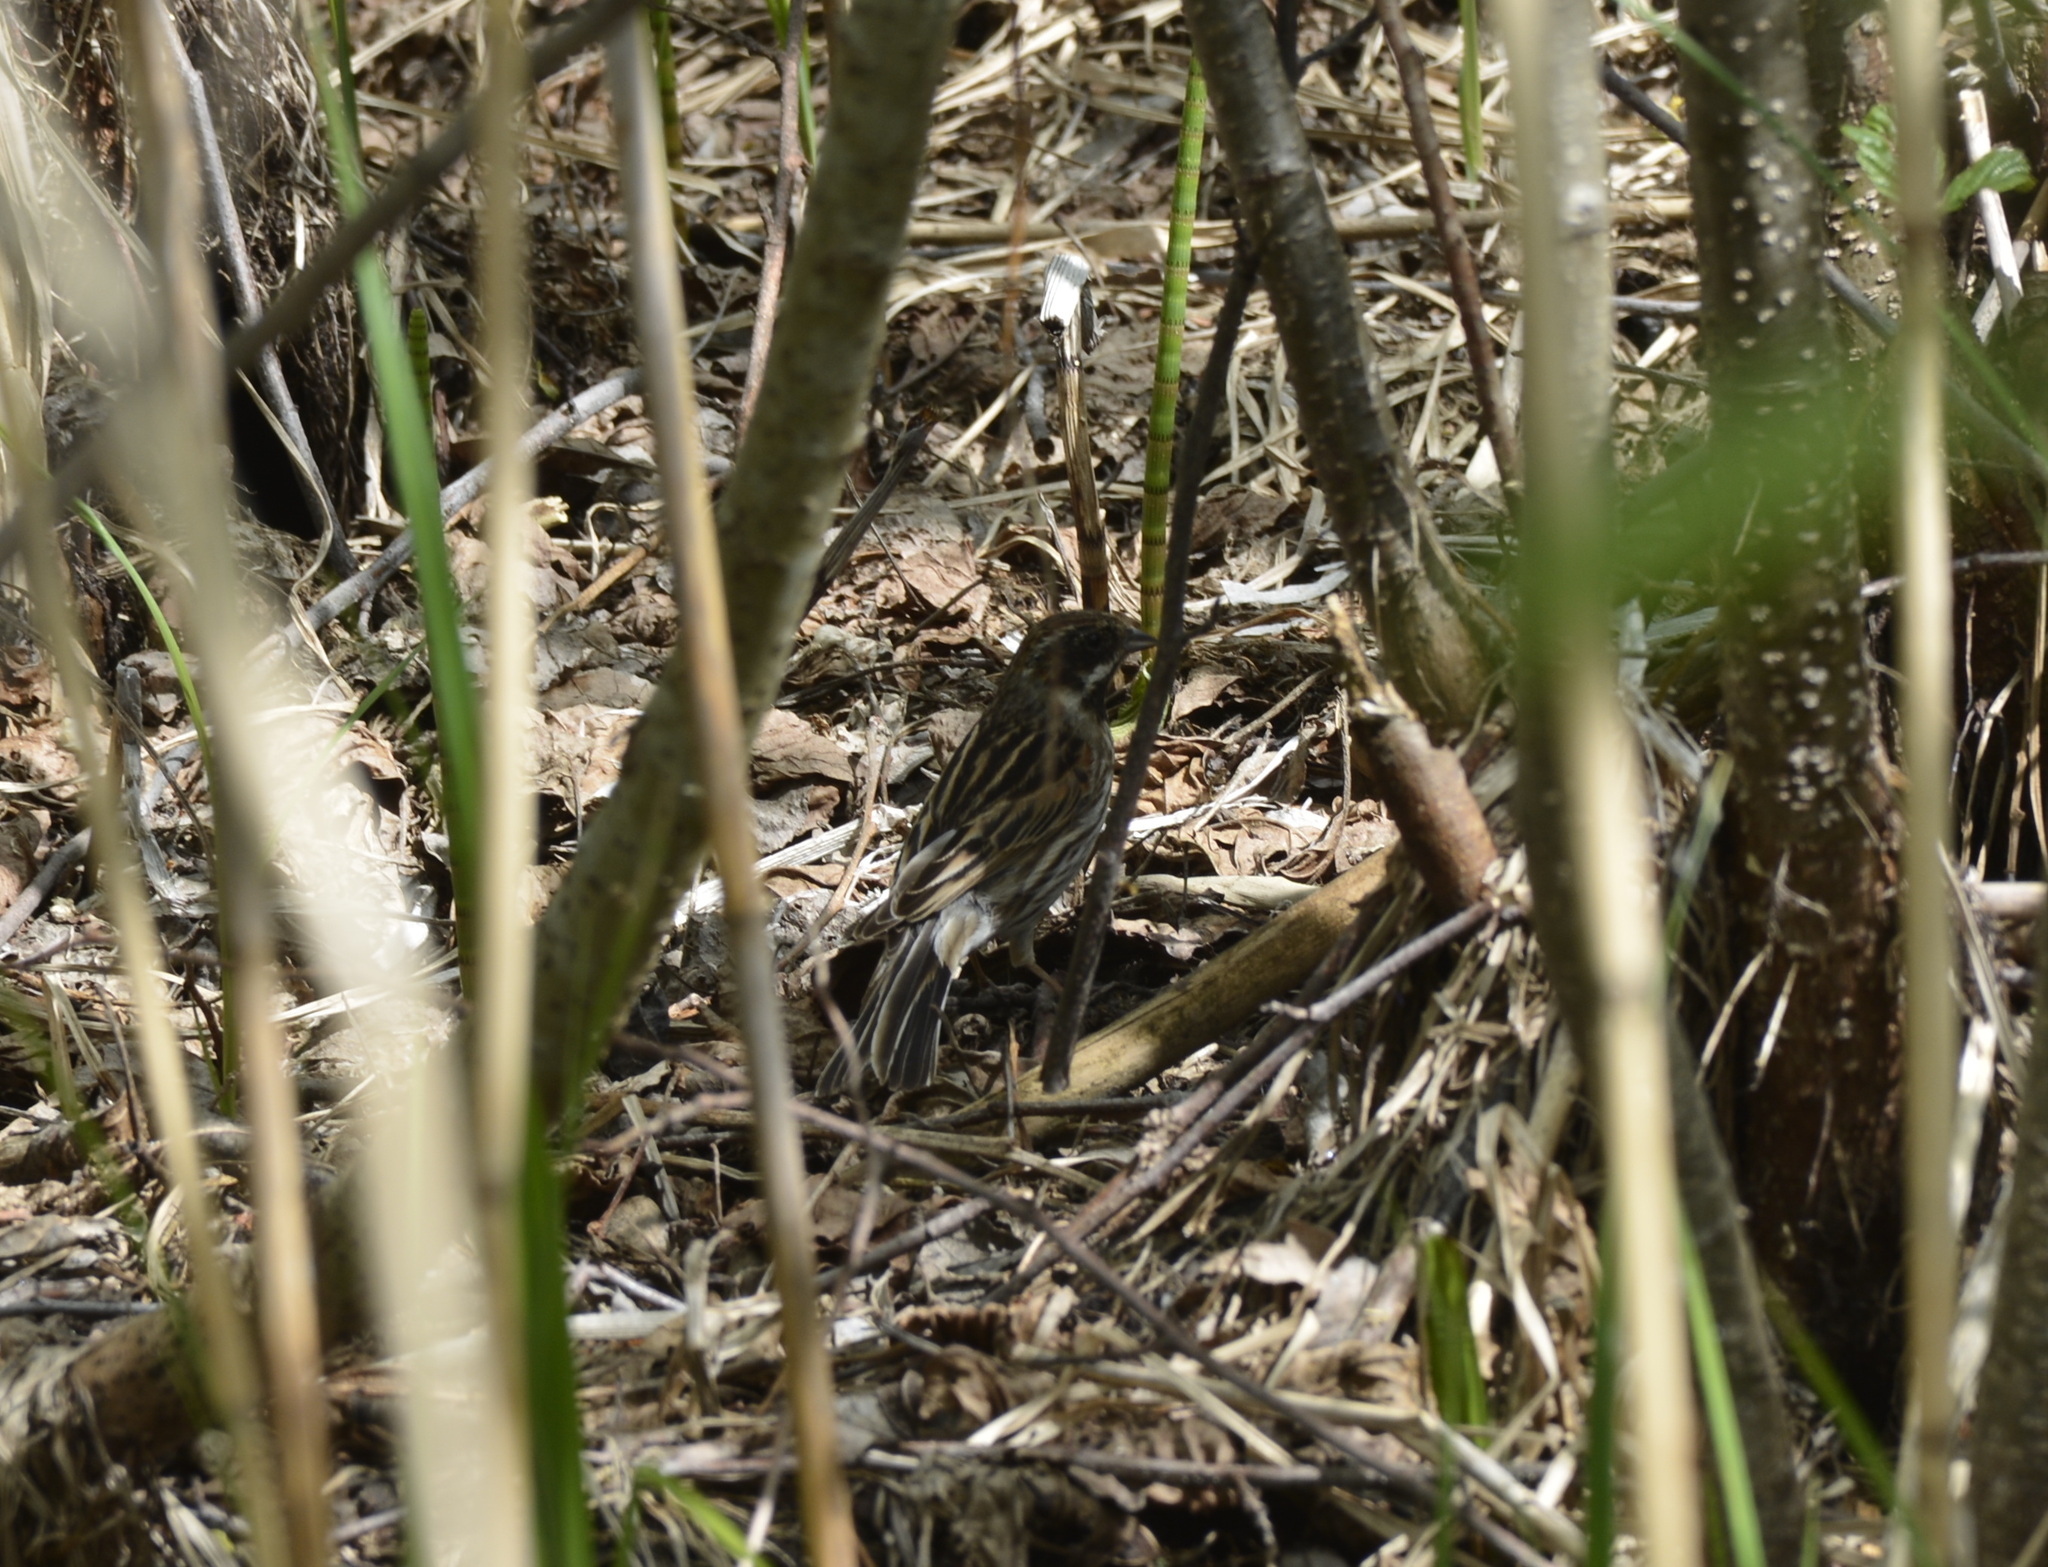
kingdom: Animalia
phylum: Chordata
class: Aves
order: Passeriformes
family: Emberizidae
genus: Emberiza
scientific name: Emberiza schoeniclus
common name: Reed bunting
